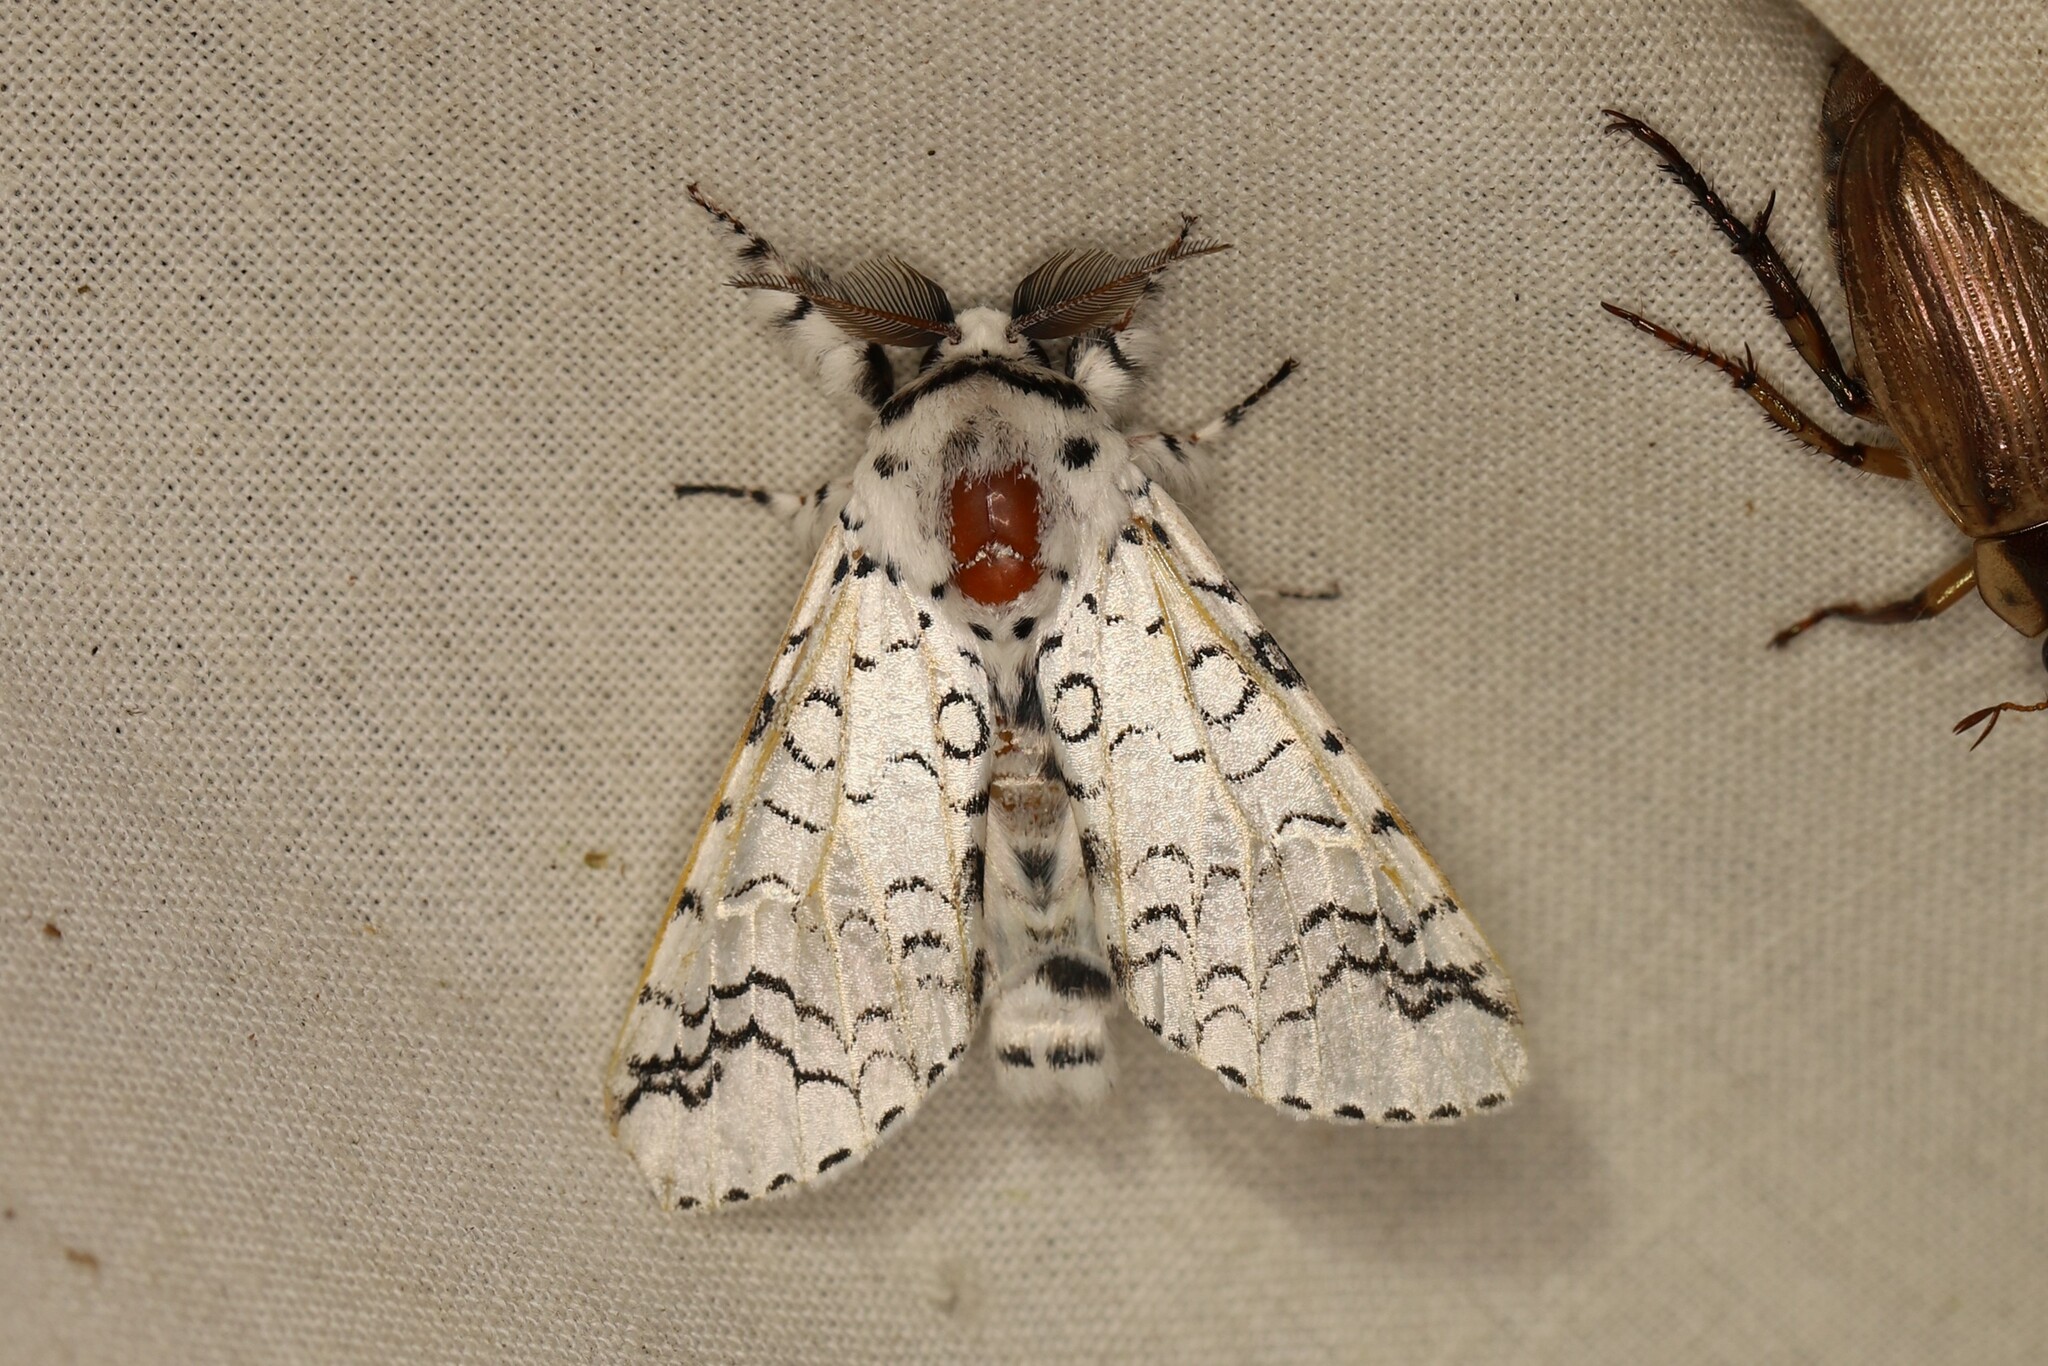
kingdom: Animalia
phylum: Arthropoda
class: Insecta
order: Lepidoptera
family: Notodontidae
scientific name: Notodontidae
